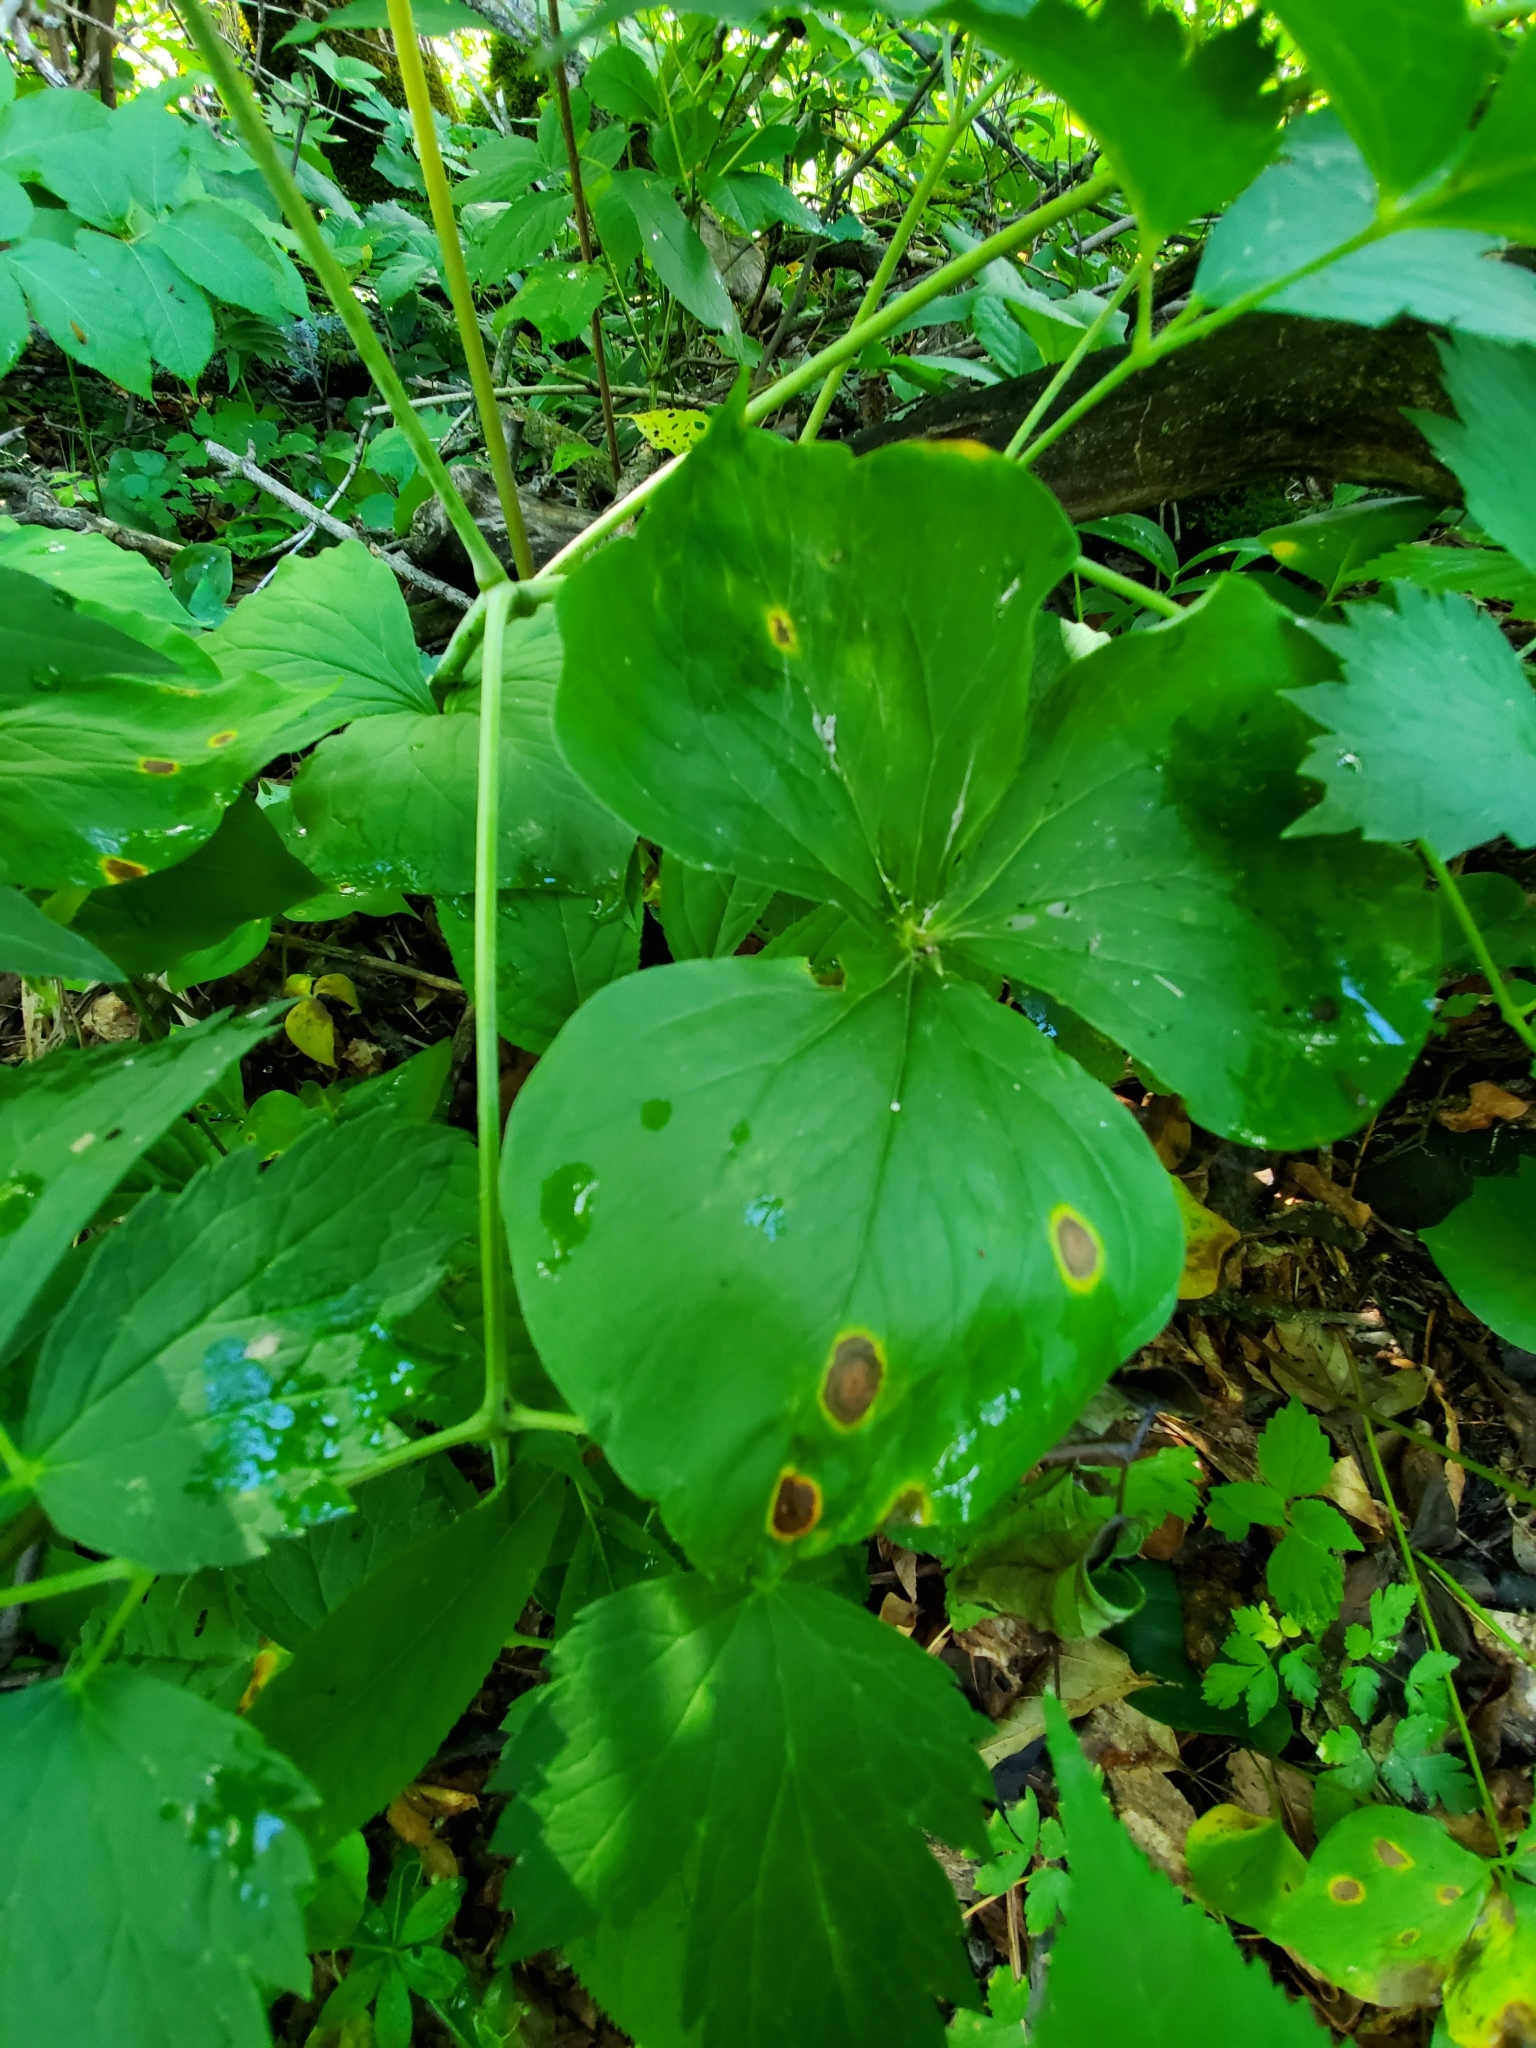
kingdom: Plantae
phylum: Tracheophyta
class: Liliopsida
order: Liliales
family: Melanthiaceae
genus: Trillium
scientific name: Trillium cernuum
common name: Nodding trillium
